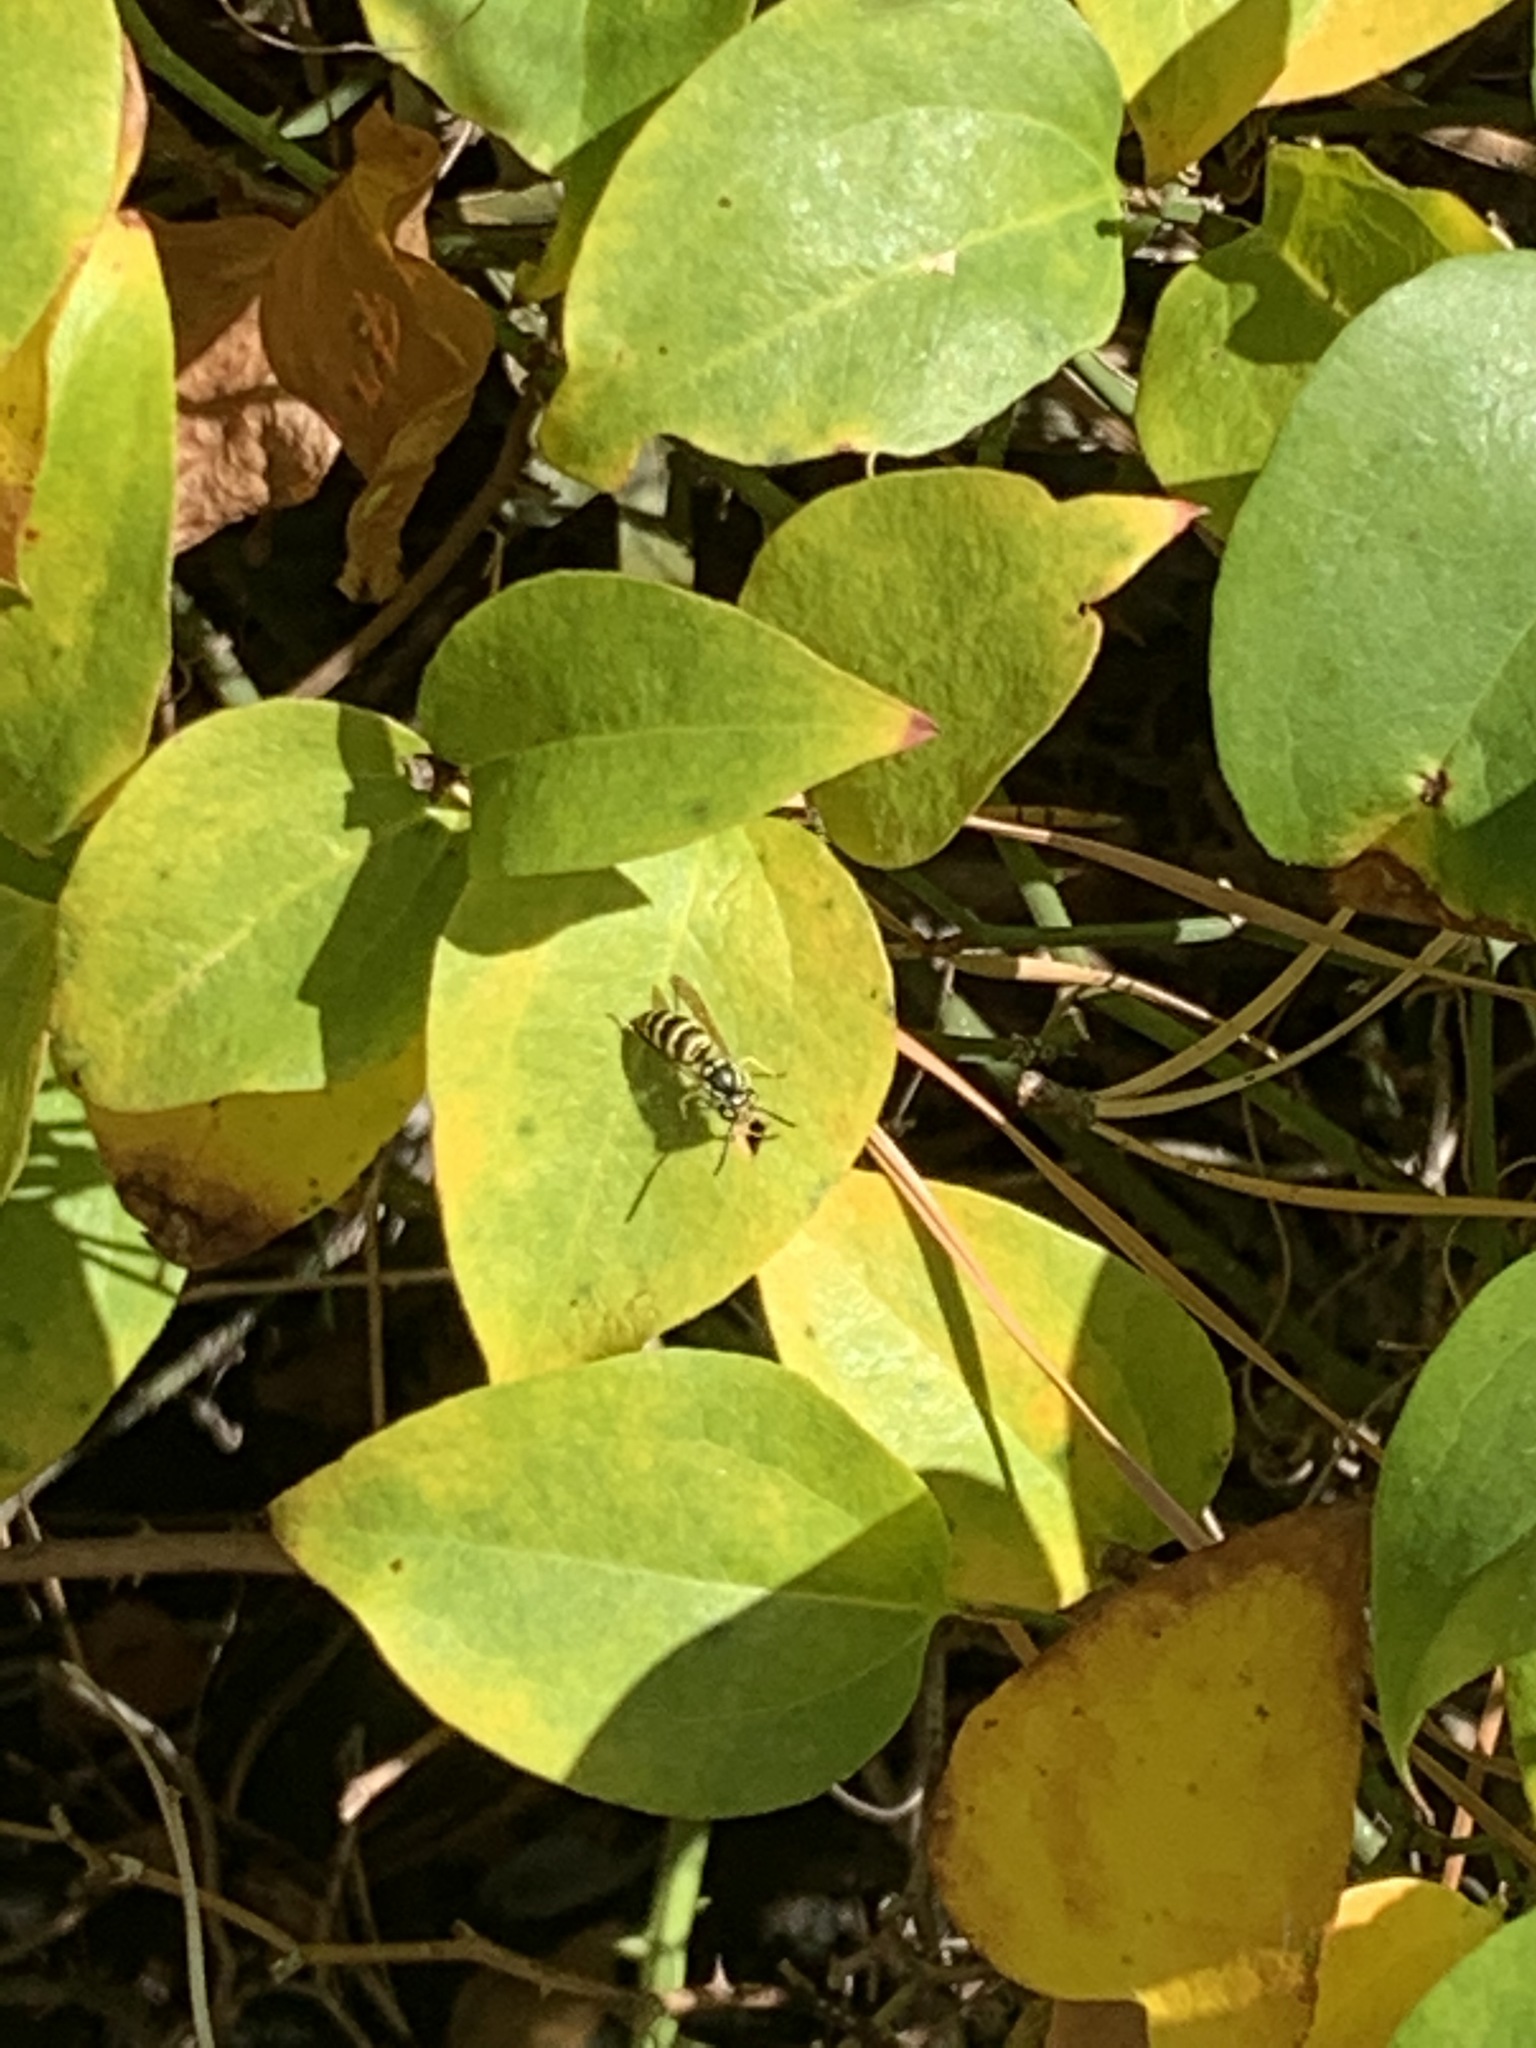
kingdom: Animalia
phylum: Arthropoda
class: Insecta
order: Hymenoptera
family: Vespidae
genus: Vespula
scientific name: Vespula maculifrons
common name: Eastern yellowjacket
